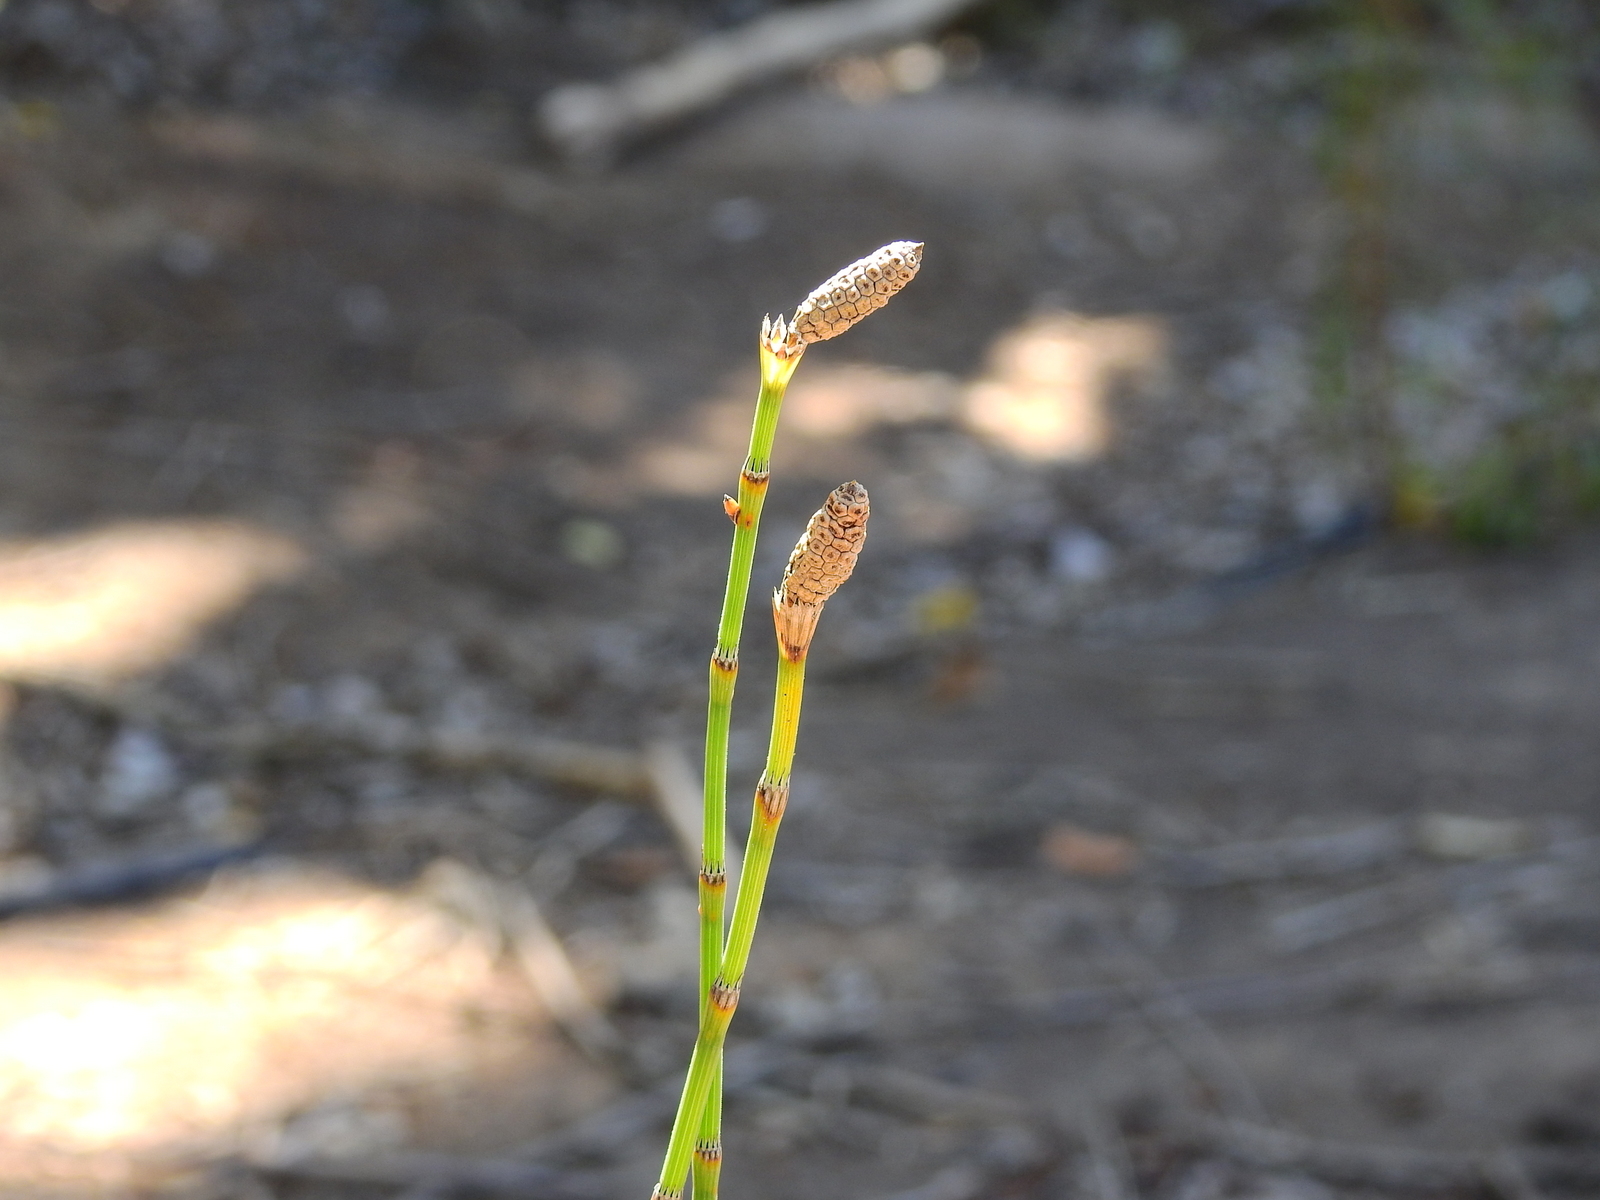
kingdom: Plantae
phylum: Tracheophyta
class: Polypodiopsida
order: Equisetales
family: Equisetaceae
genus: Equisetum
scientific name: Equisetum giganteum
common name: Giant horsetail
